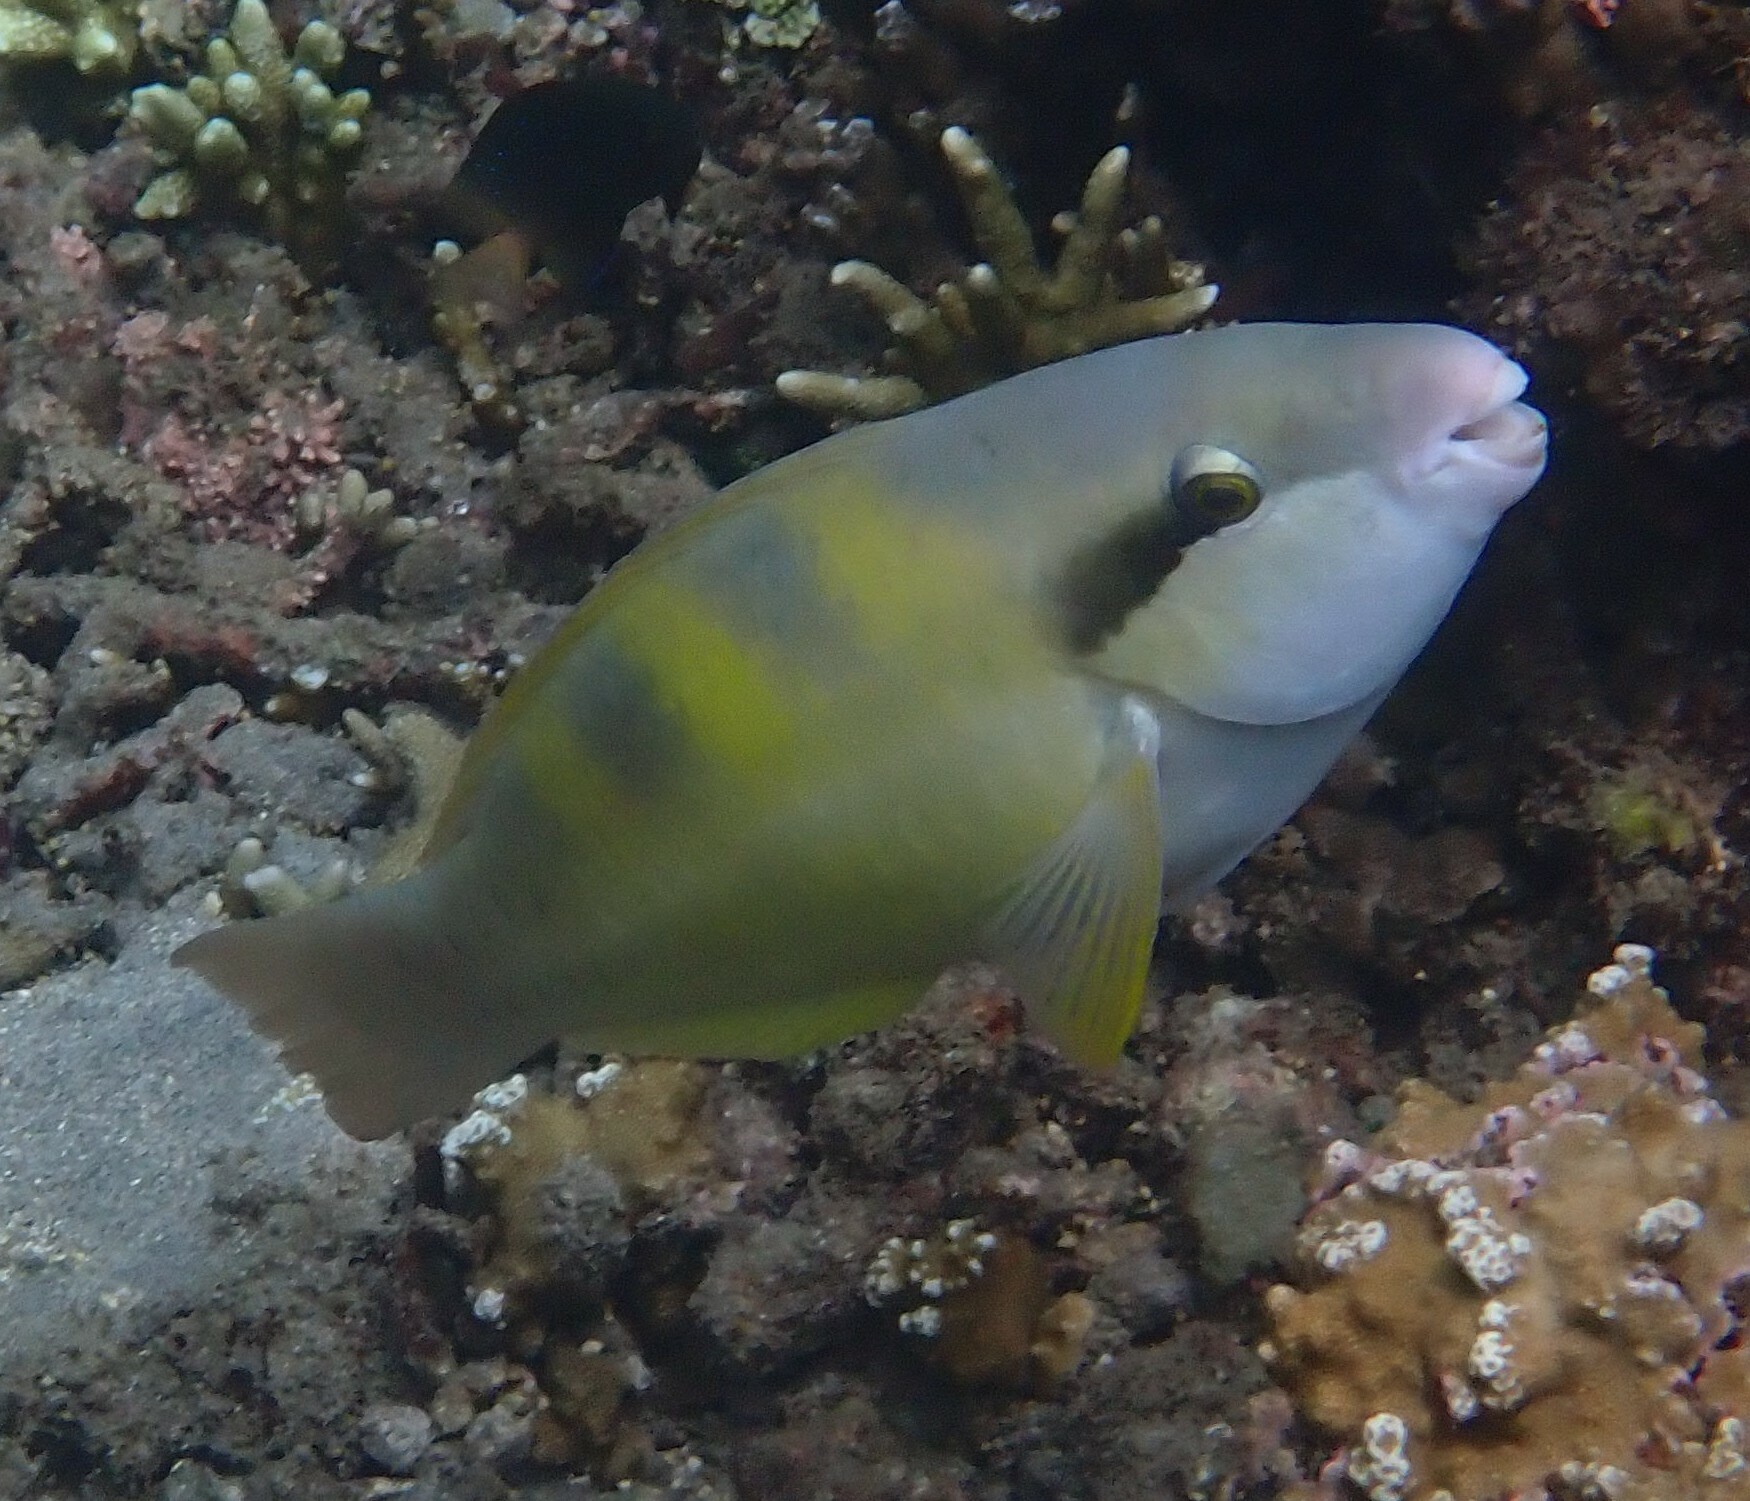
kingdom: Animalia
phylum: Chordata
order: Perciformes
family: Scaridae
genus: Scarus
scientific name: Scarus dimidiatus
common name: Yellowbarred parrotfish
